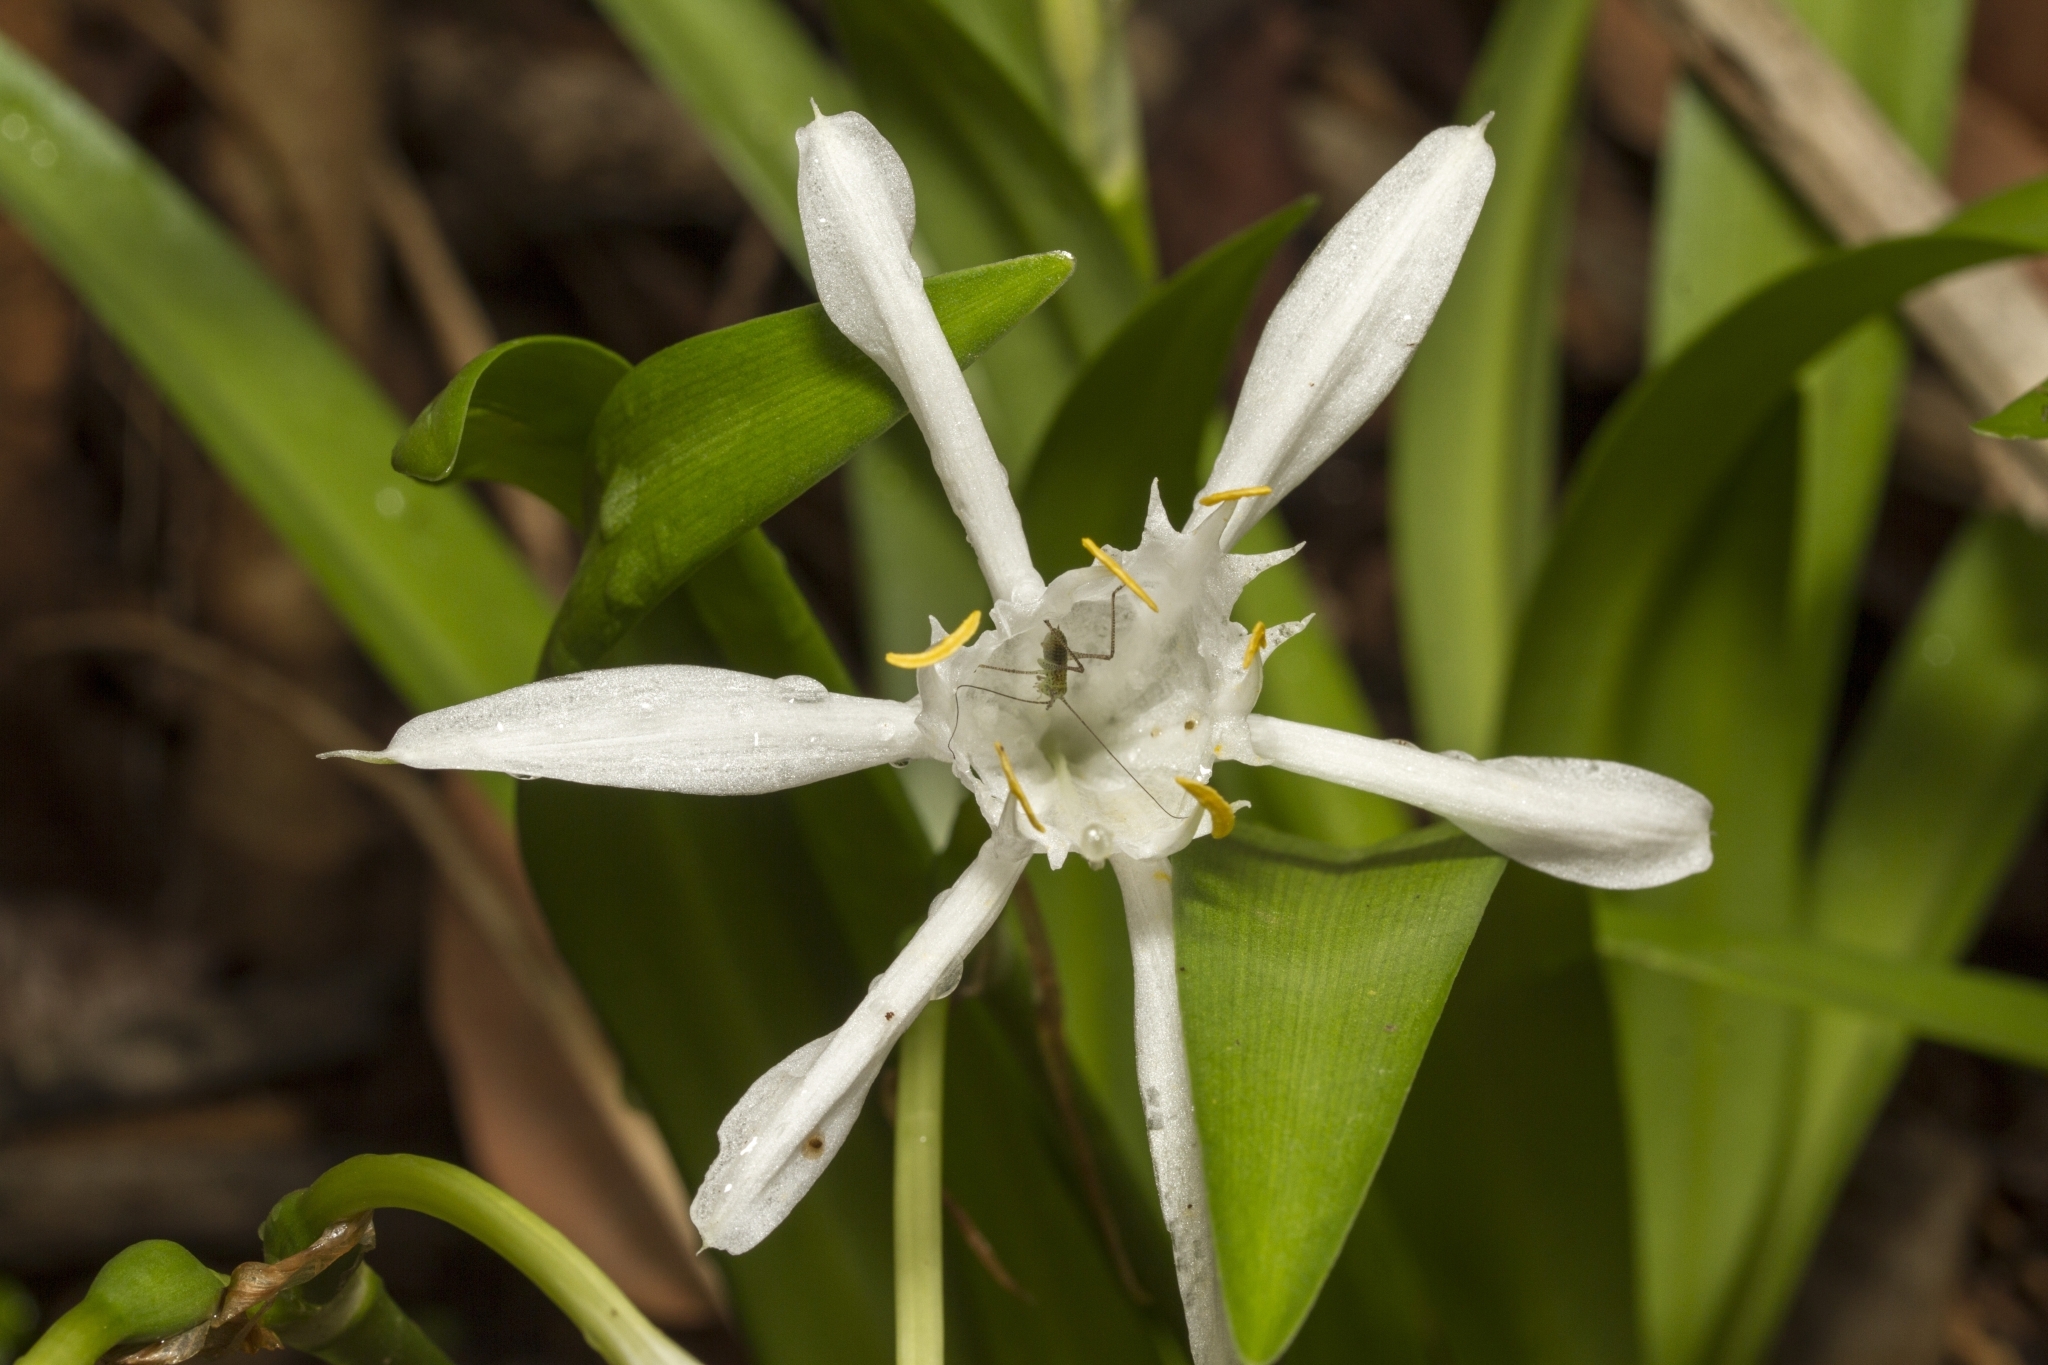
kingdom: Plantae
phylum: Tracheophyta
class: Liliopsida
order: Asparagales
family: Amaryllidaceae
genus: Pancratium
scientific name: Pancratium triflorum
